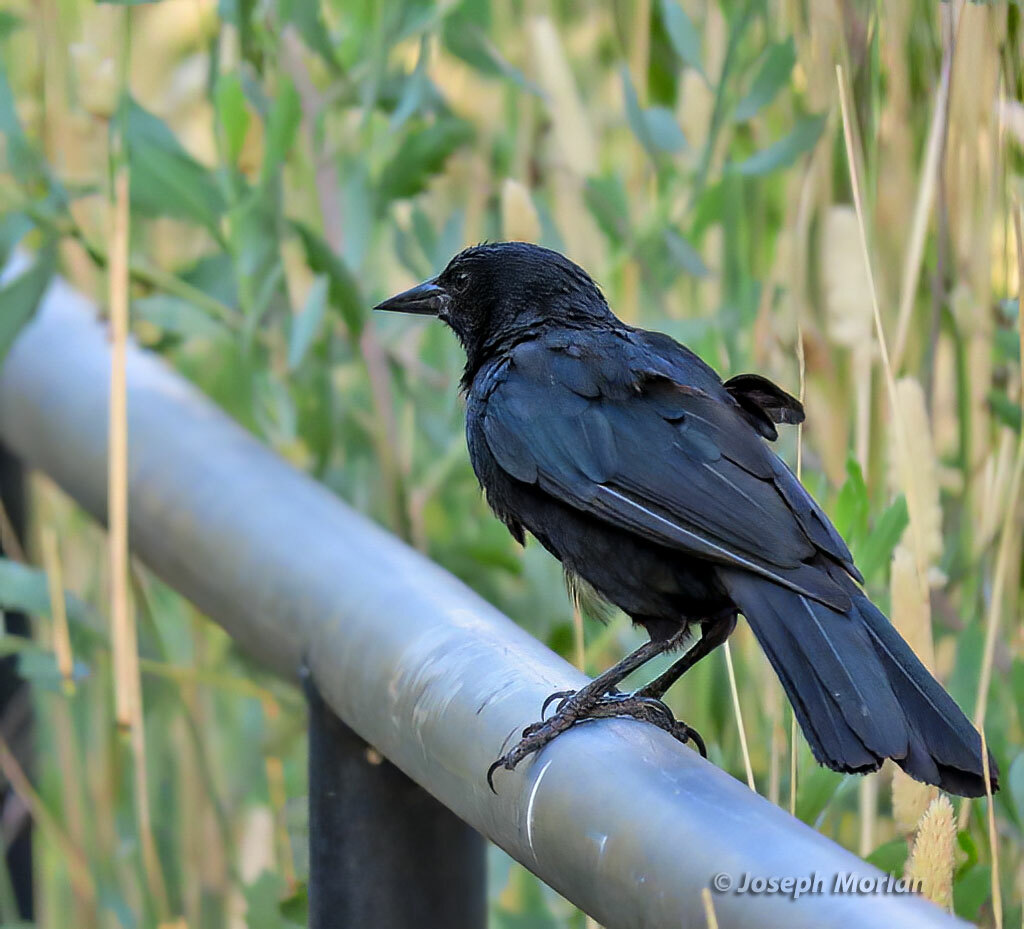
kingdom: Animalia
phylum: Chordata
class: Aves
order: Passeriformes
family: Icteridae
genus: Curaeus
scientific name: Curaeus curaeus
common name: Austral blackbird
